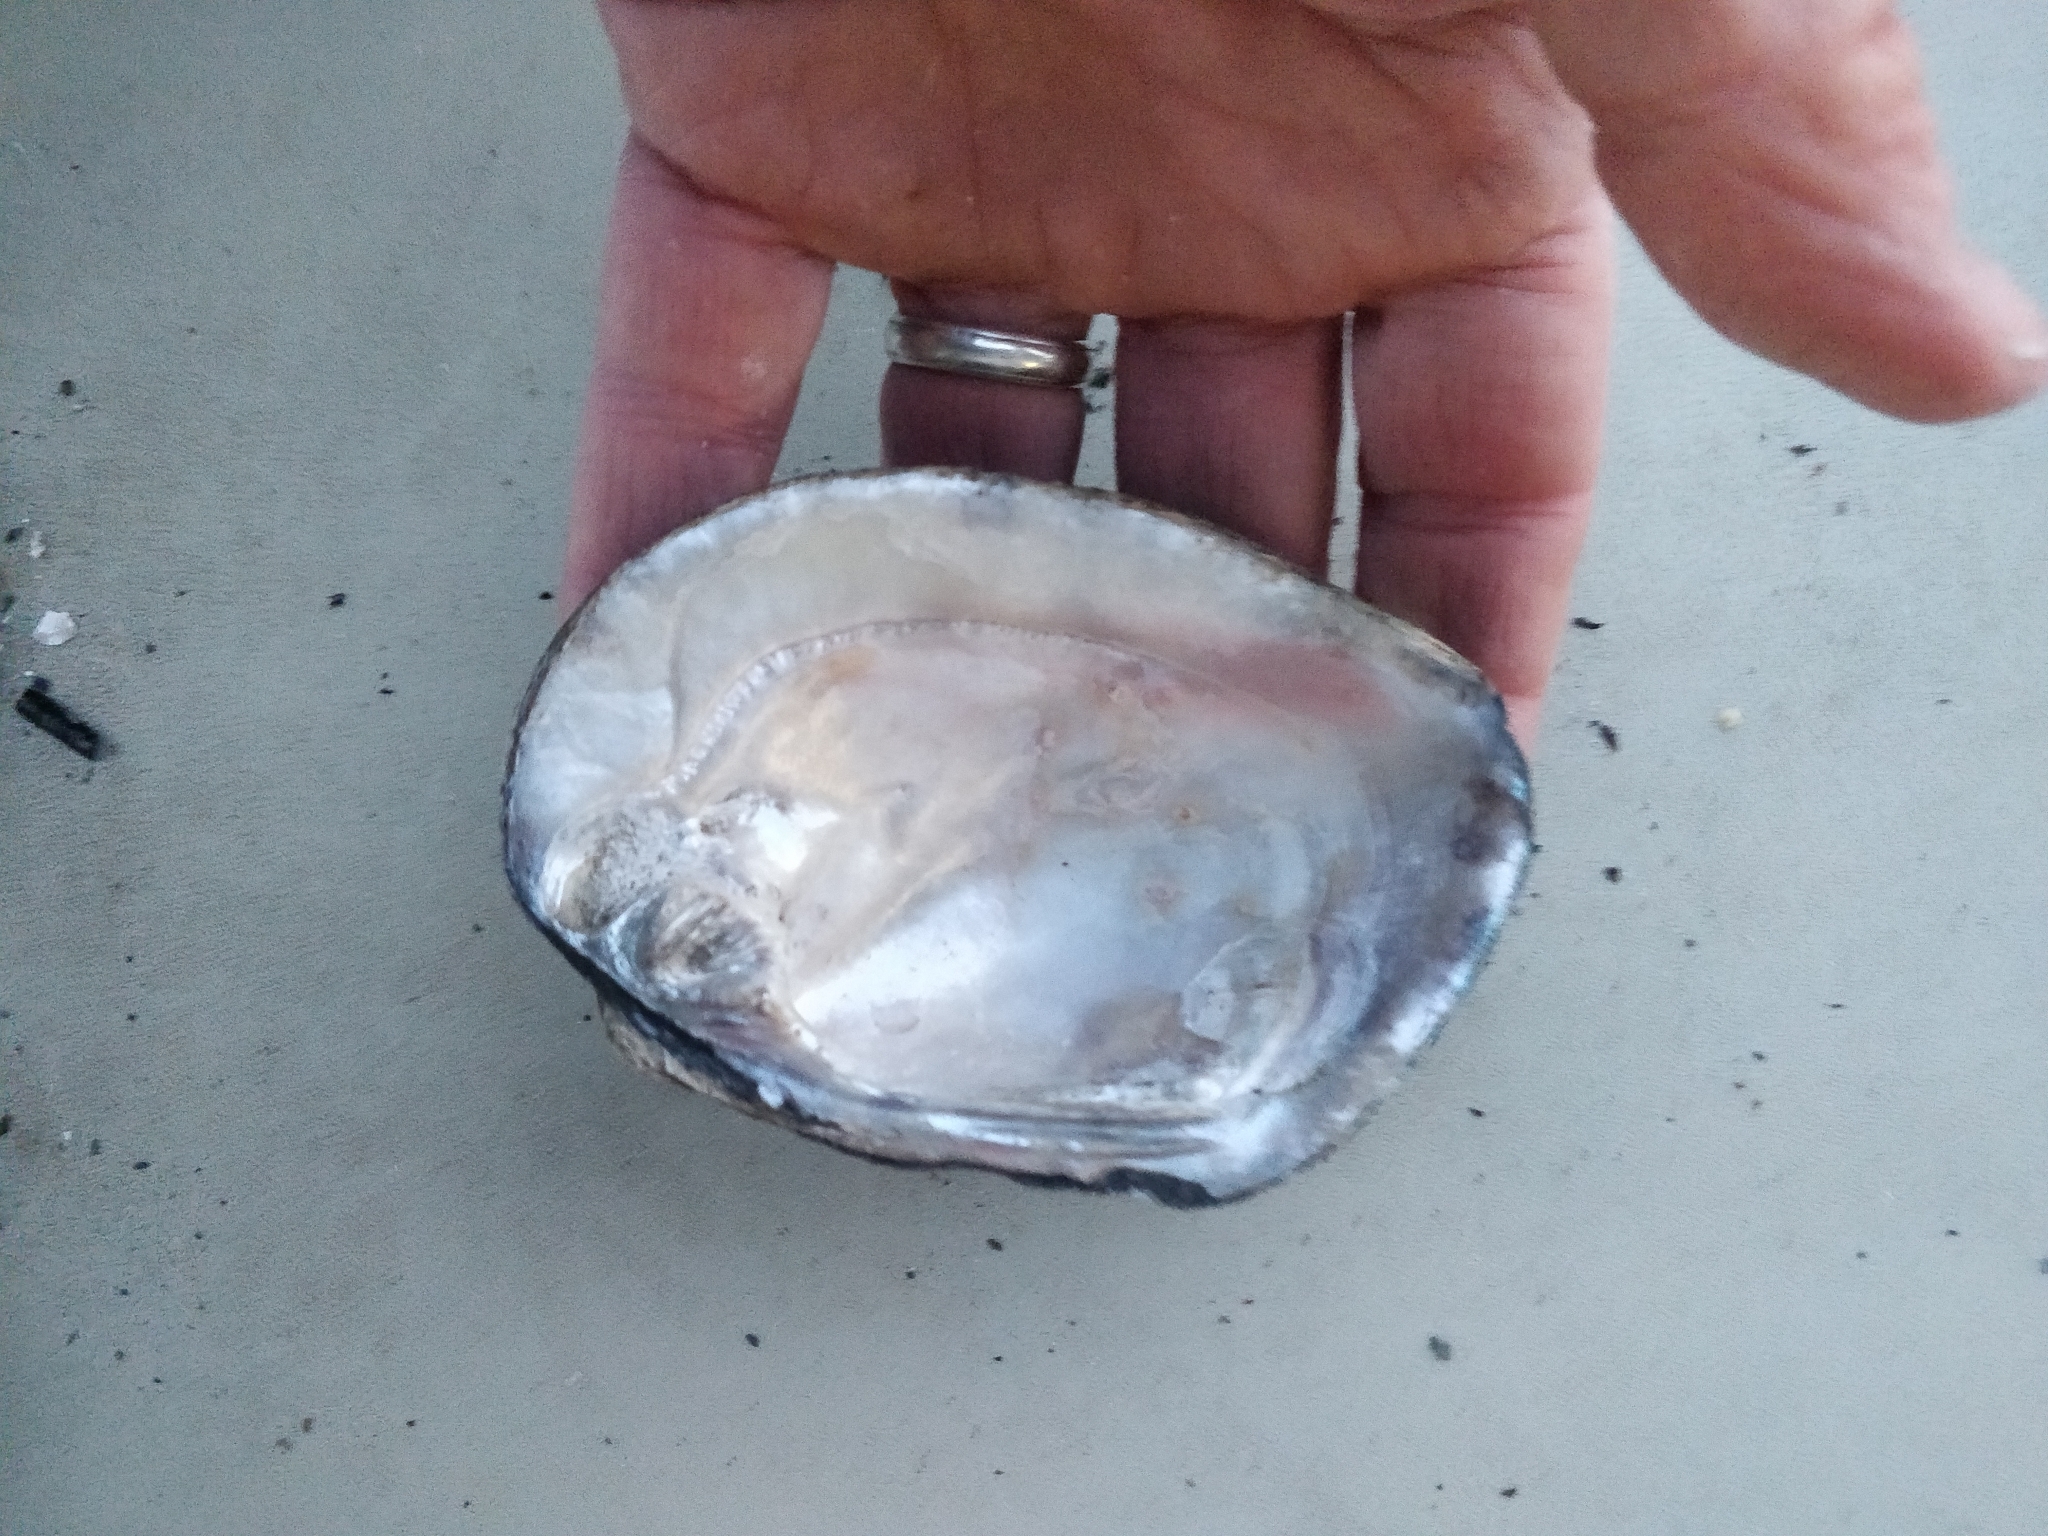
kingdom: Animalia
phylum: Mollusca
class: Bivalvia
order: Unionida
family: Unionidae
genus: Amblema
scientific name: Amblema plicata
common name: Threeridge
